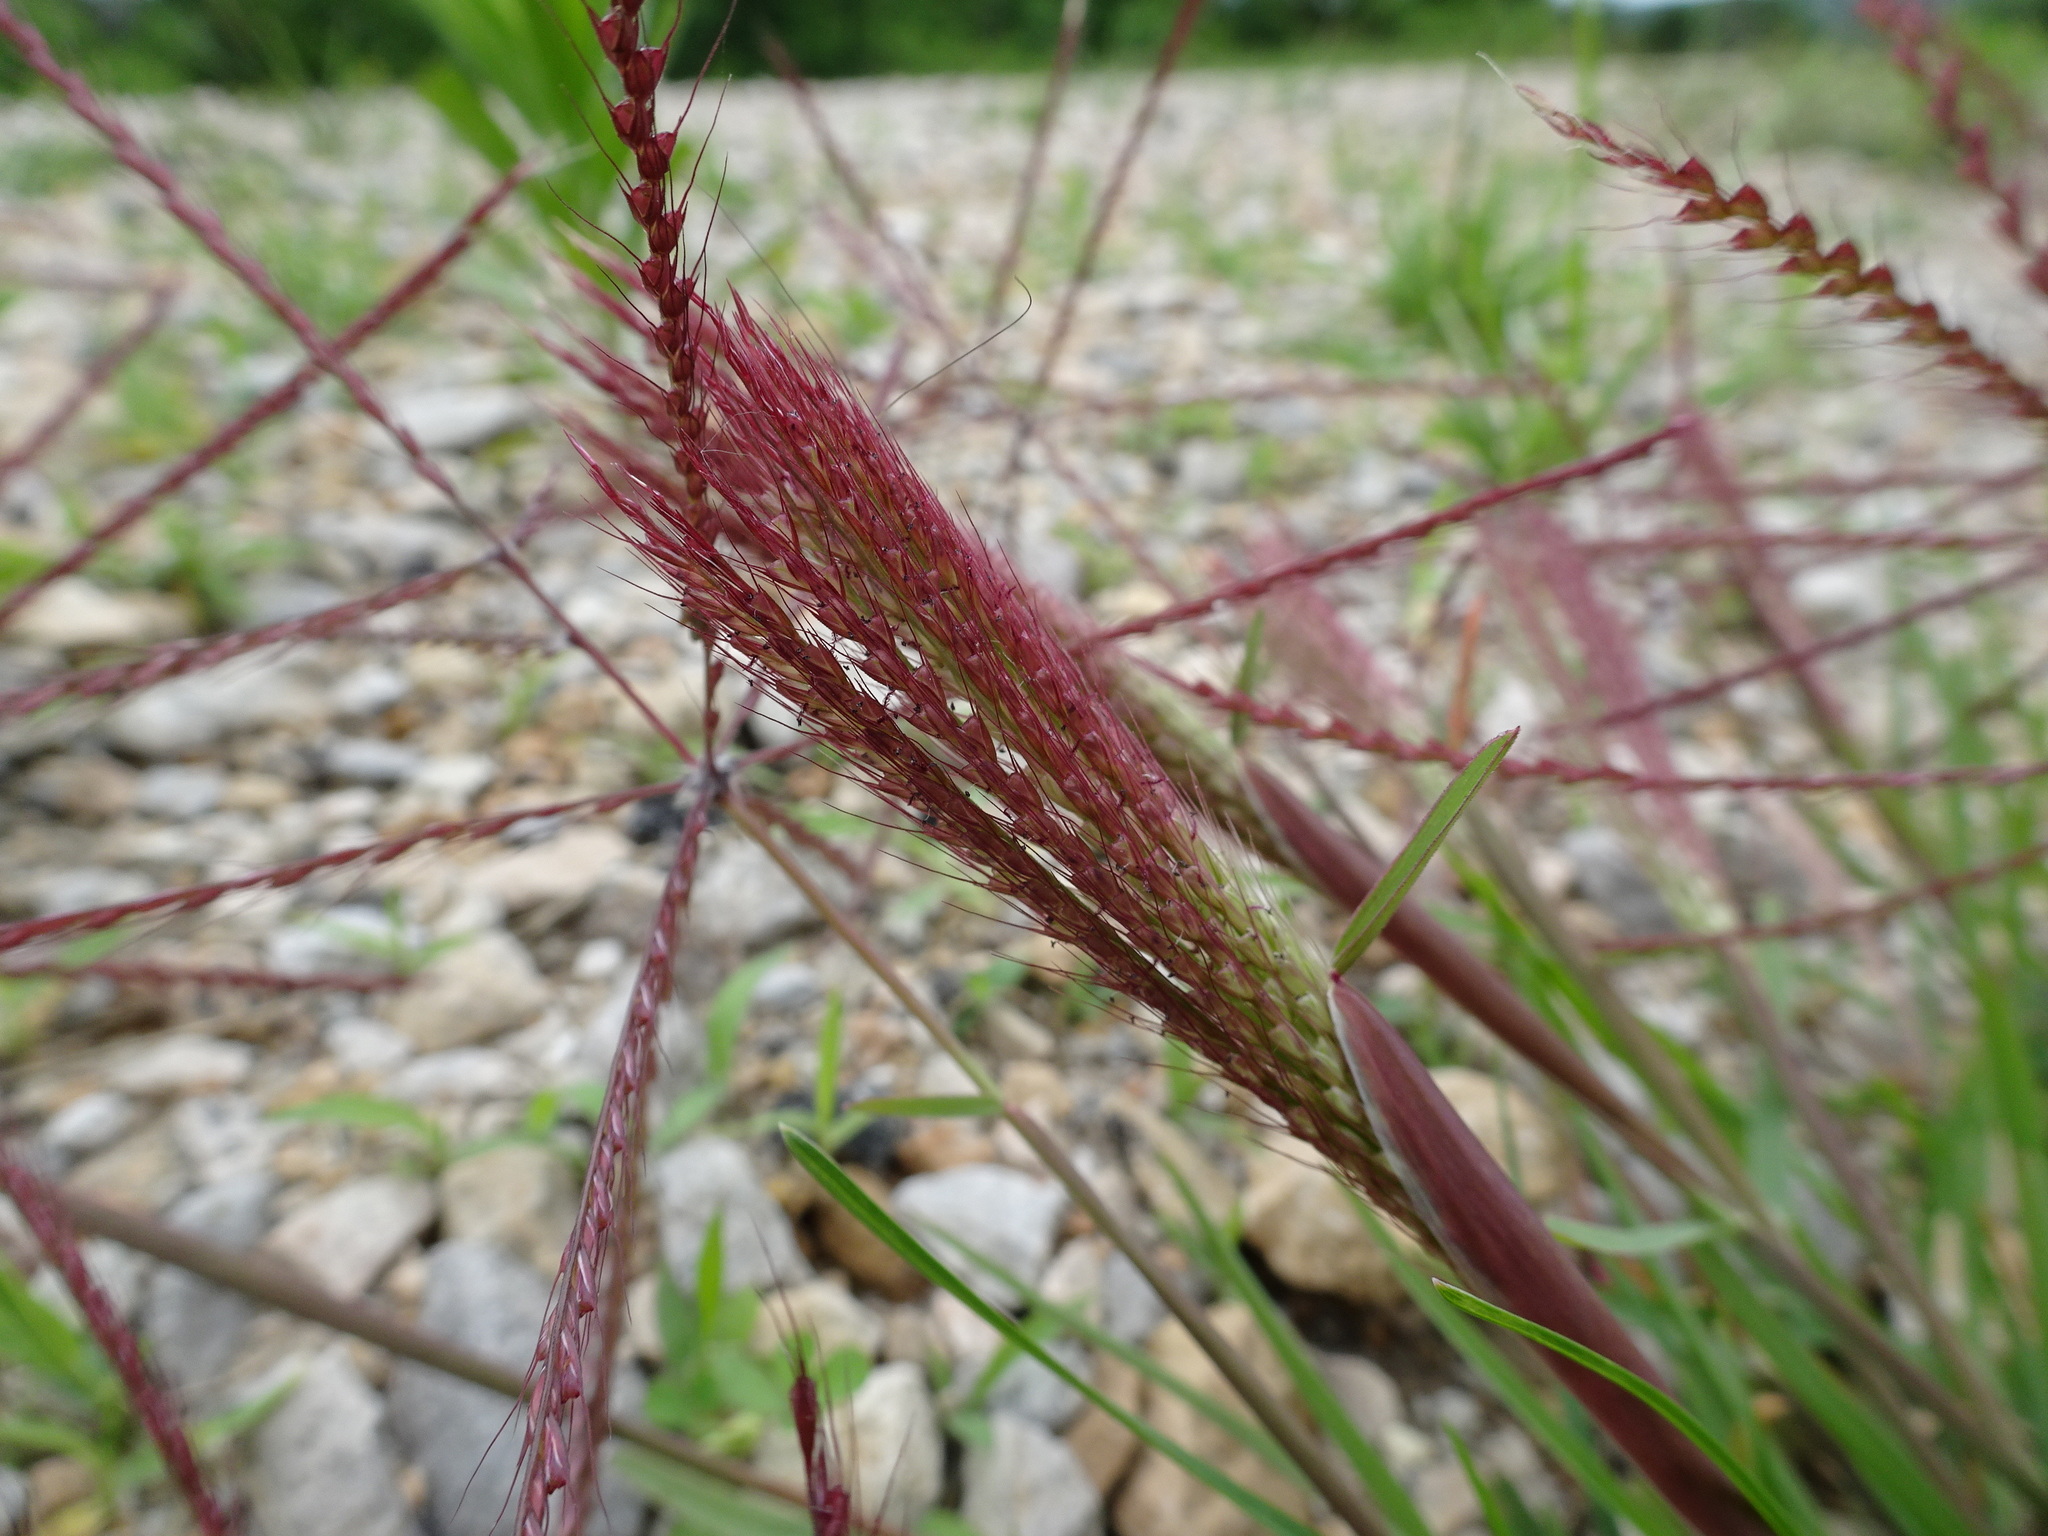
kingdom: Plantae
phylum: Tracheophyta
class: Liliopsida
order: Poales
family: Poaceae
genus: Chloris
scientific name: Chloris verticillata
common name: Tumble windmill grass
